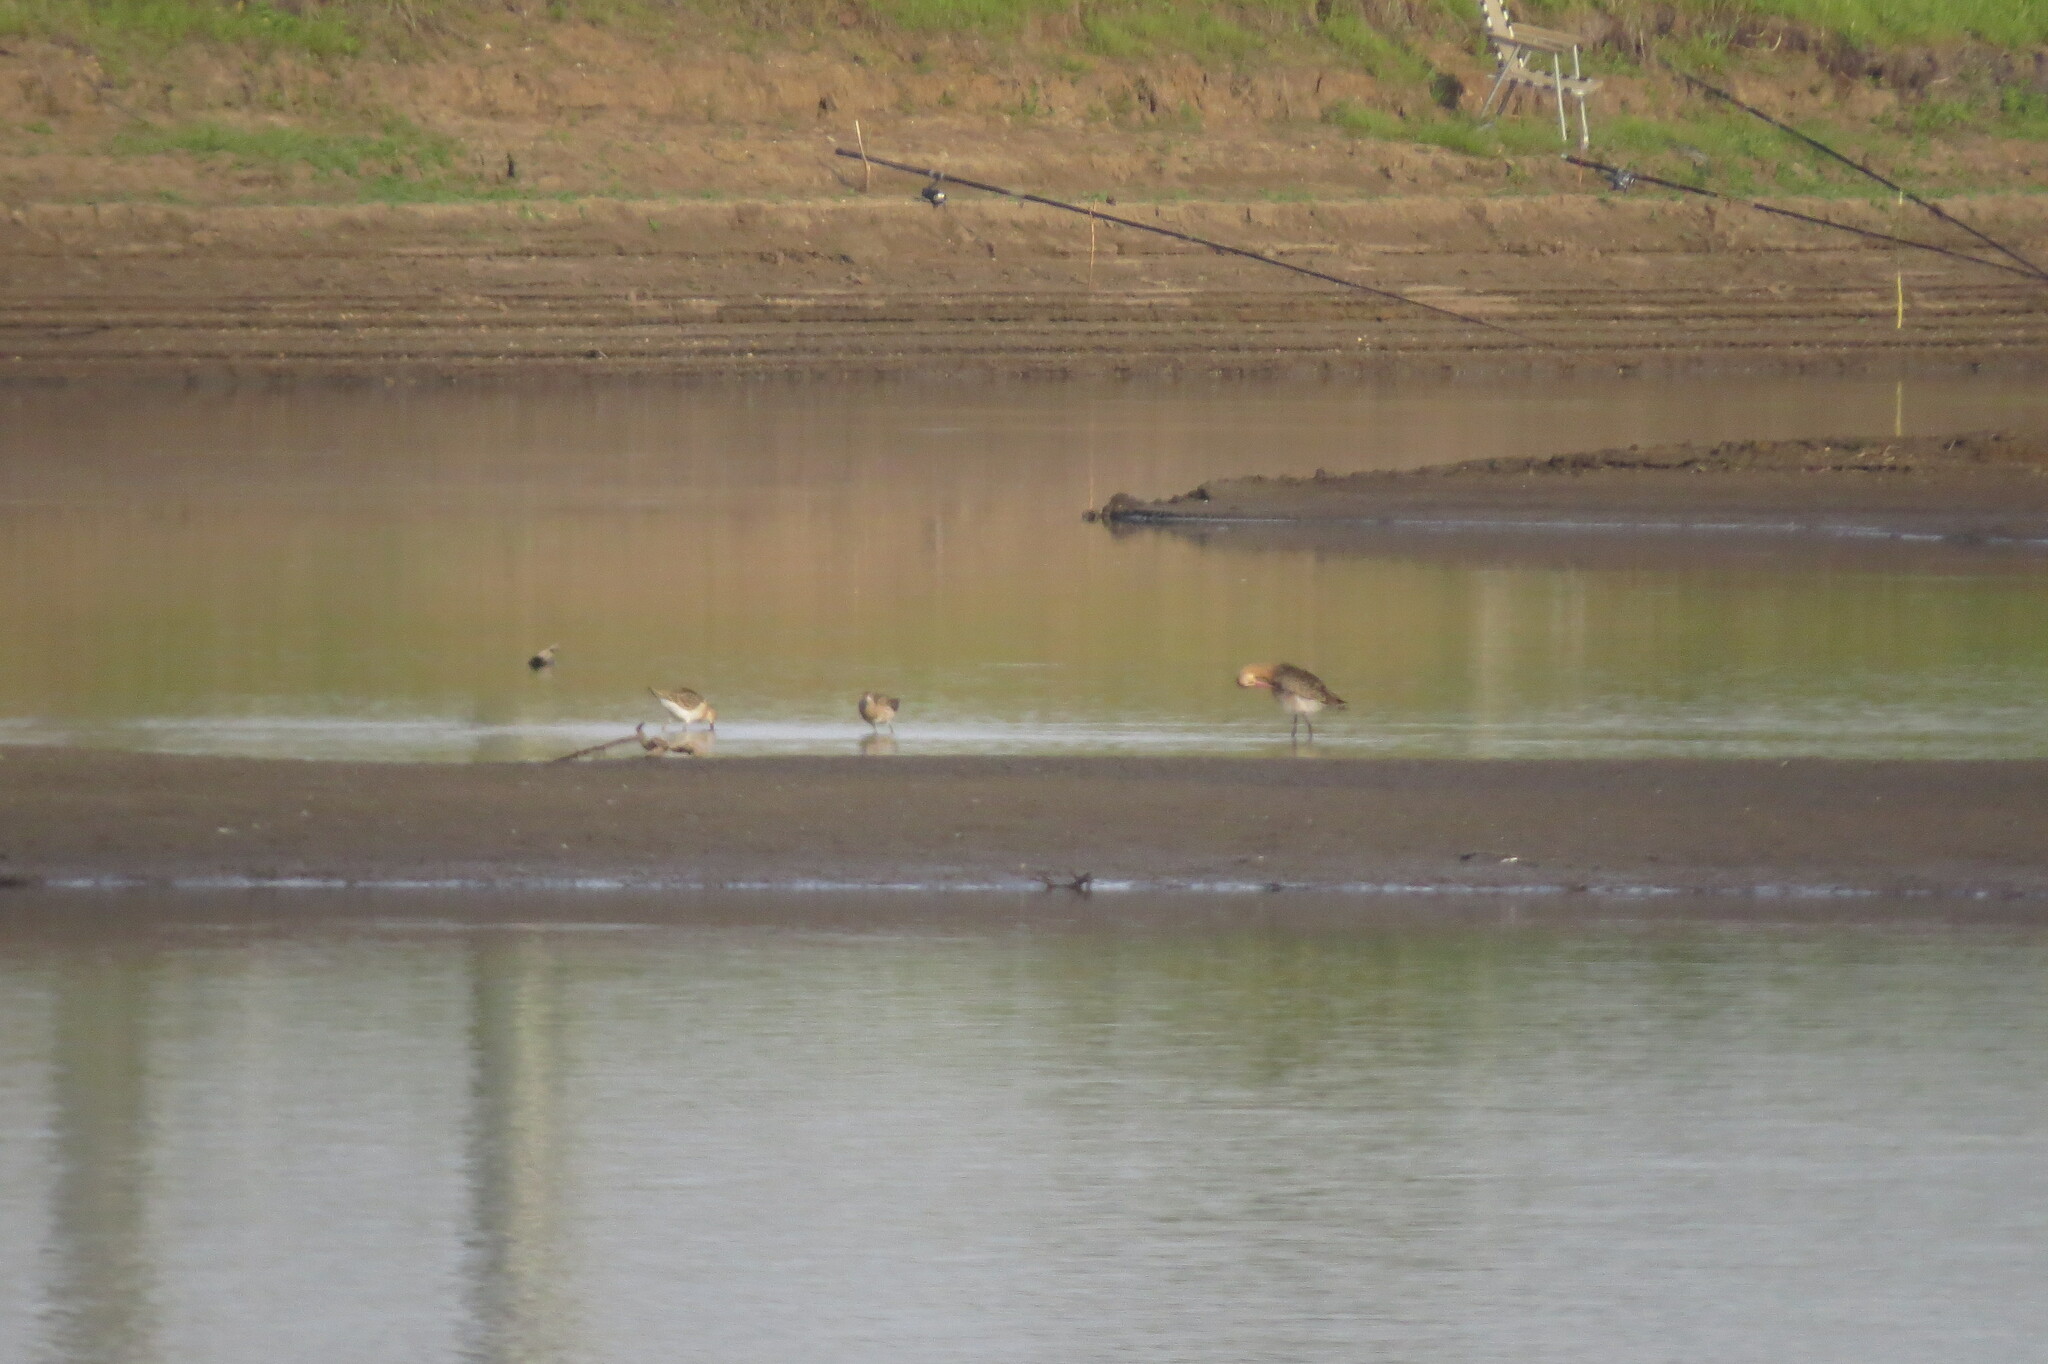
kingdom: Animalia
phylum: Chordata
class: Aves
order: Charadriiformes
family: Scolopacidae
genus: Calidris
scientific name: Calidris pugnax
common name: Ruff
